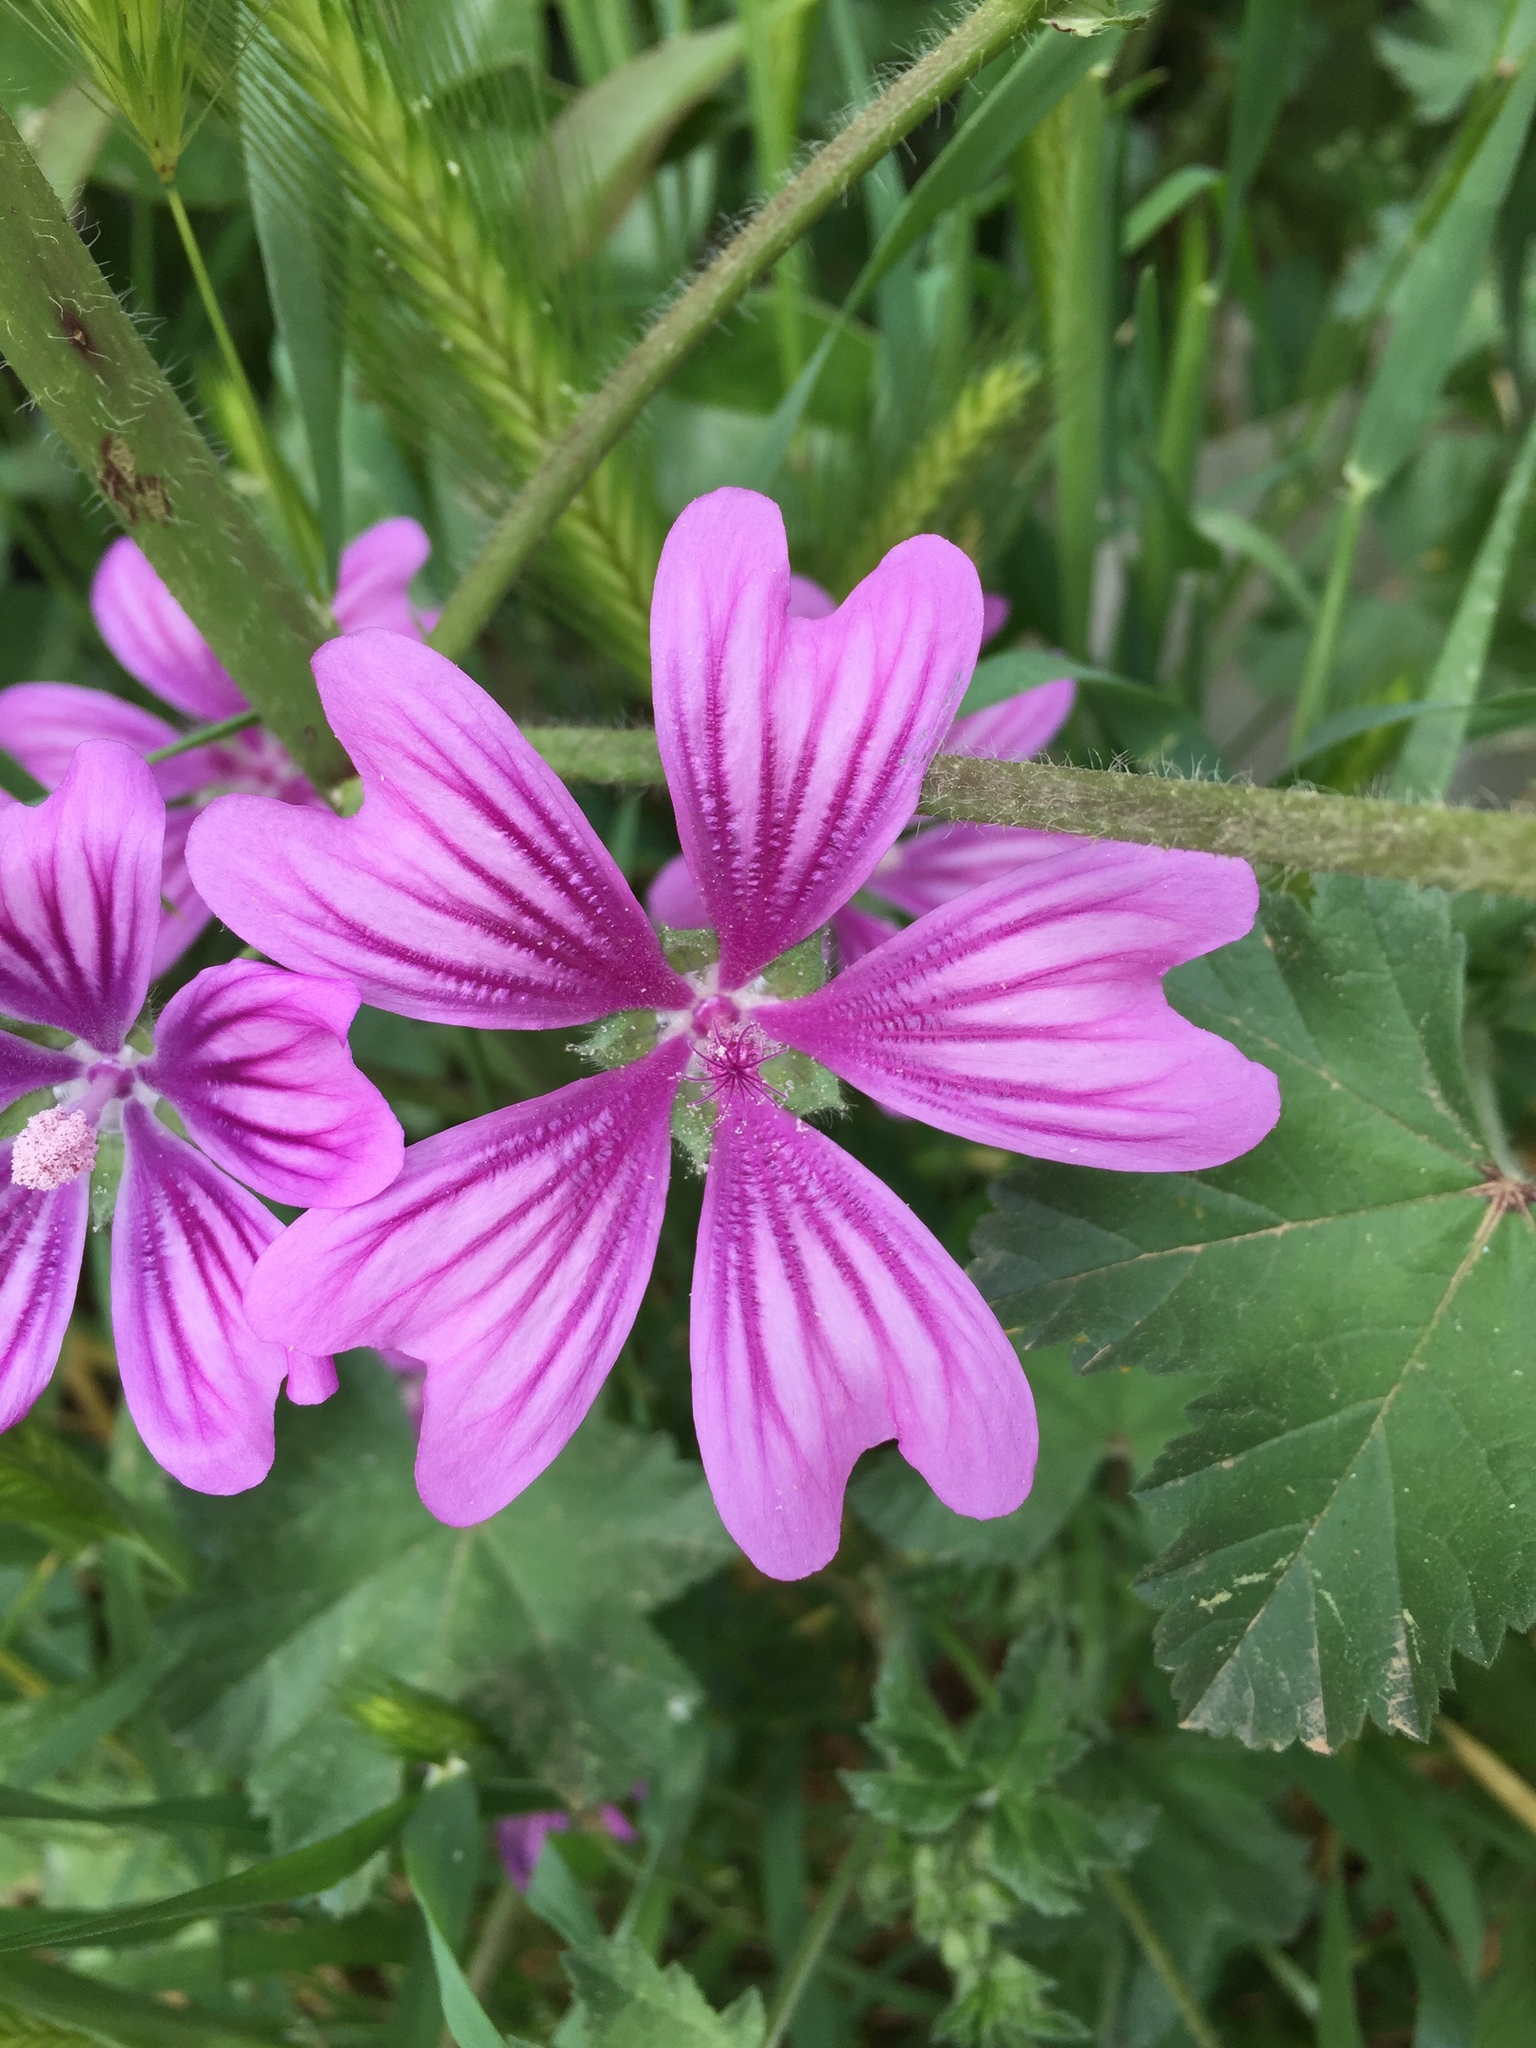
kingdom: Plantae
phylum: Tracheophyta
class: Magnoliopsida
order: Malvales
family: Malvaceae
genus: Malva
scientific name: Malva sylvestris
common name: Common mallow
